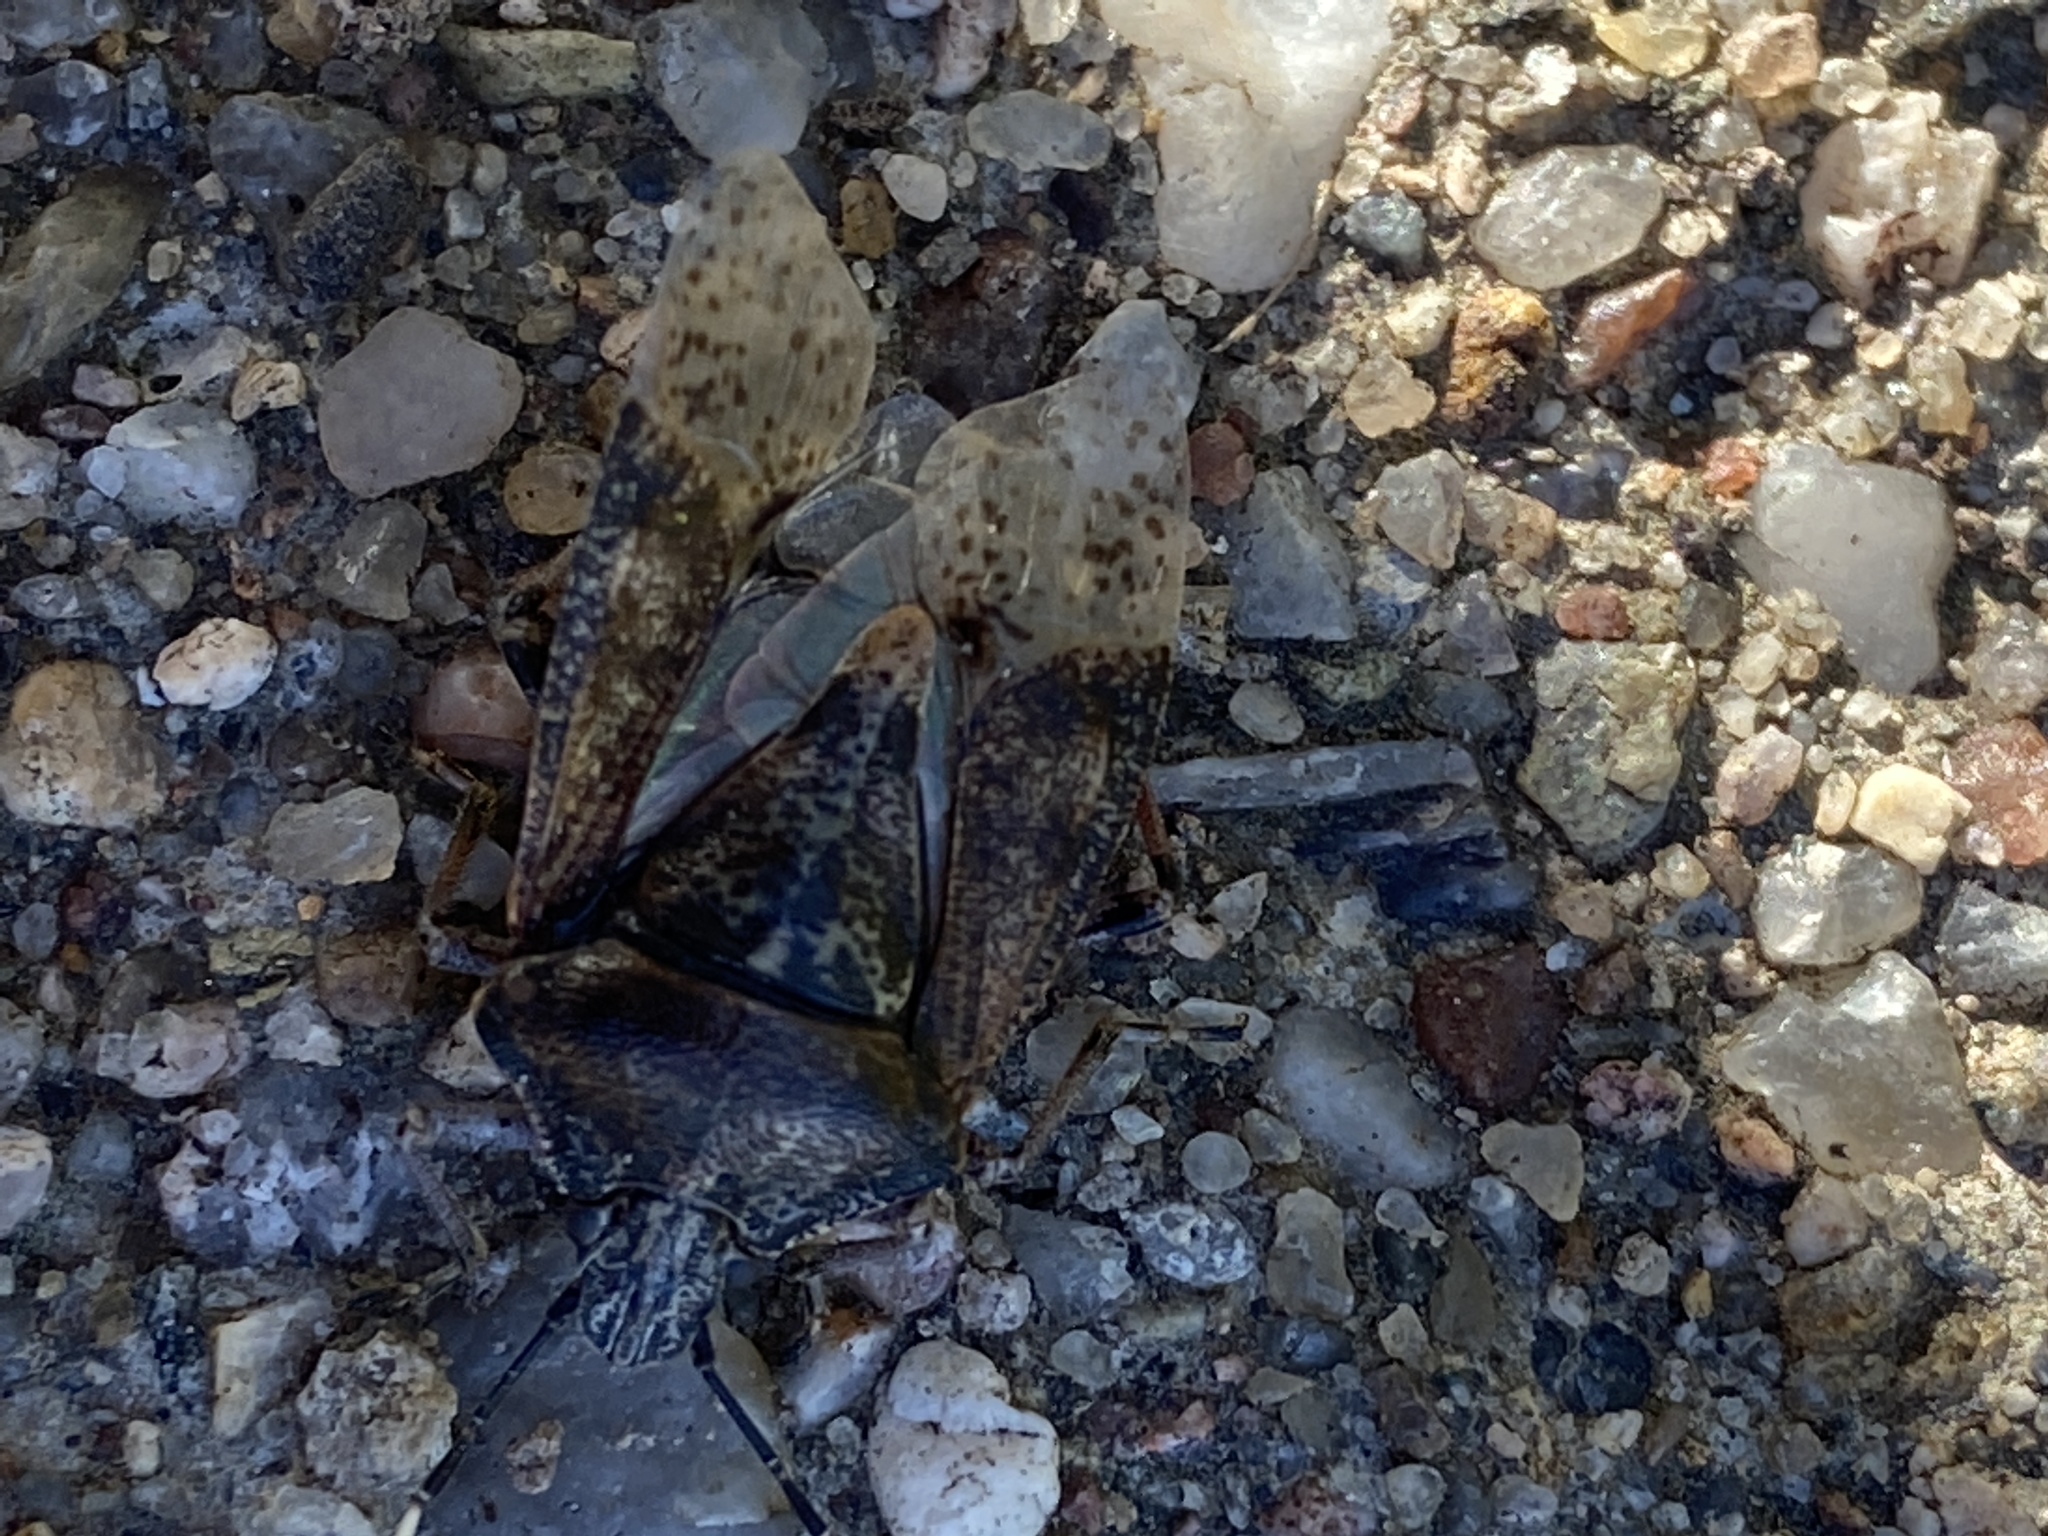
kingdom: Animalia
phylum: Arthropoda
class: Insecta
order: Hemiptera
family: Pentatomidae
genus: Rhaphigaster
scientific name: Rhaphigaster nebulosa
